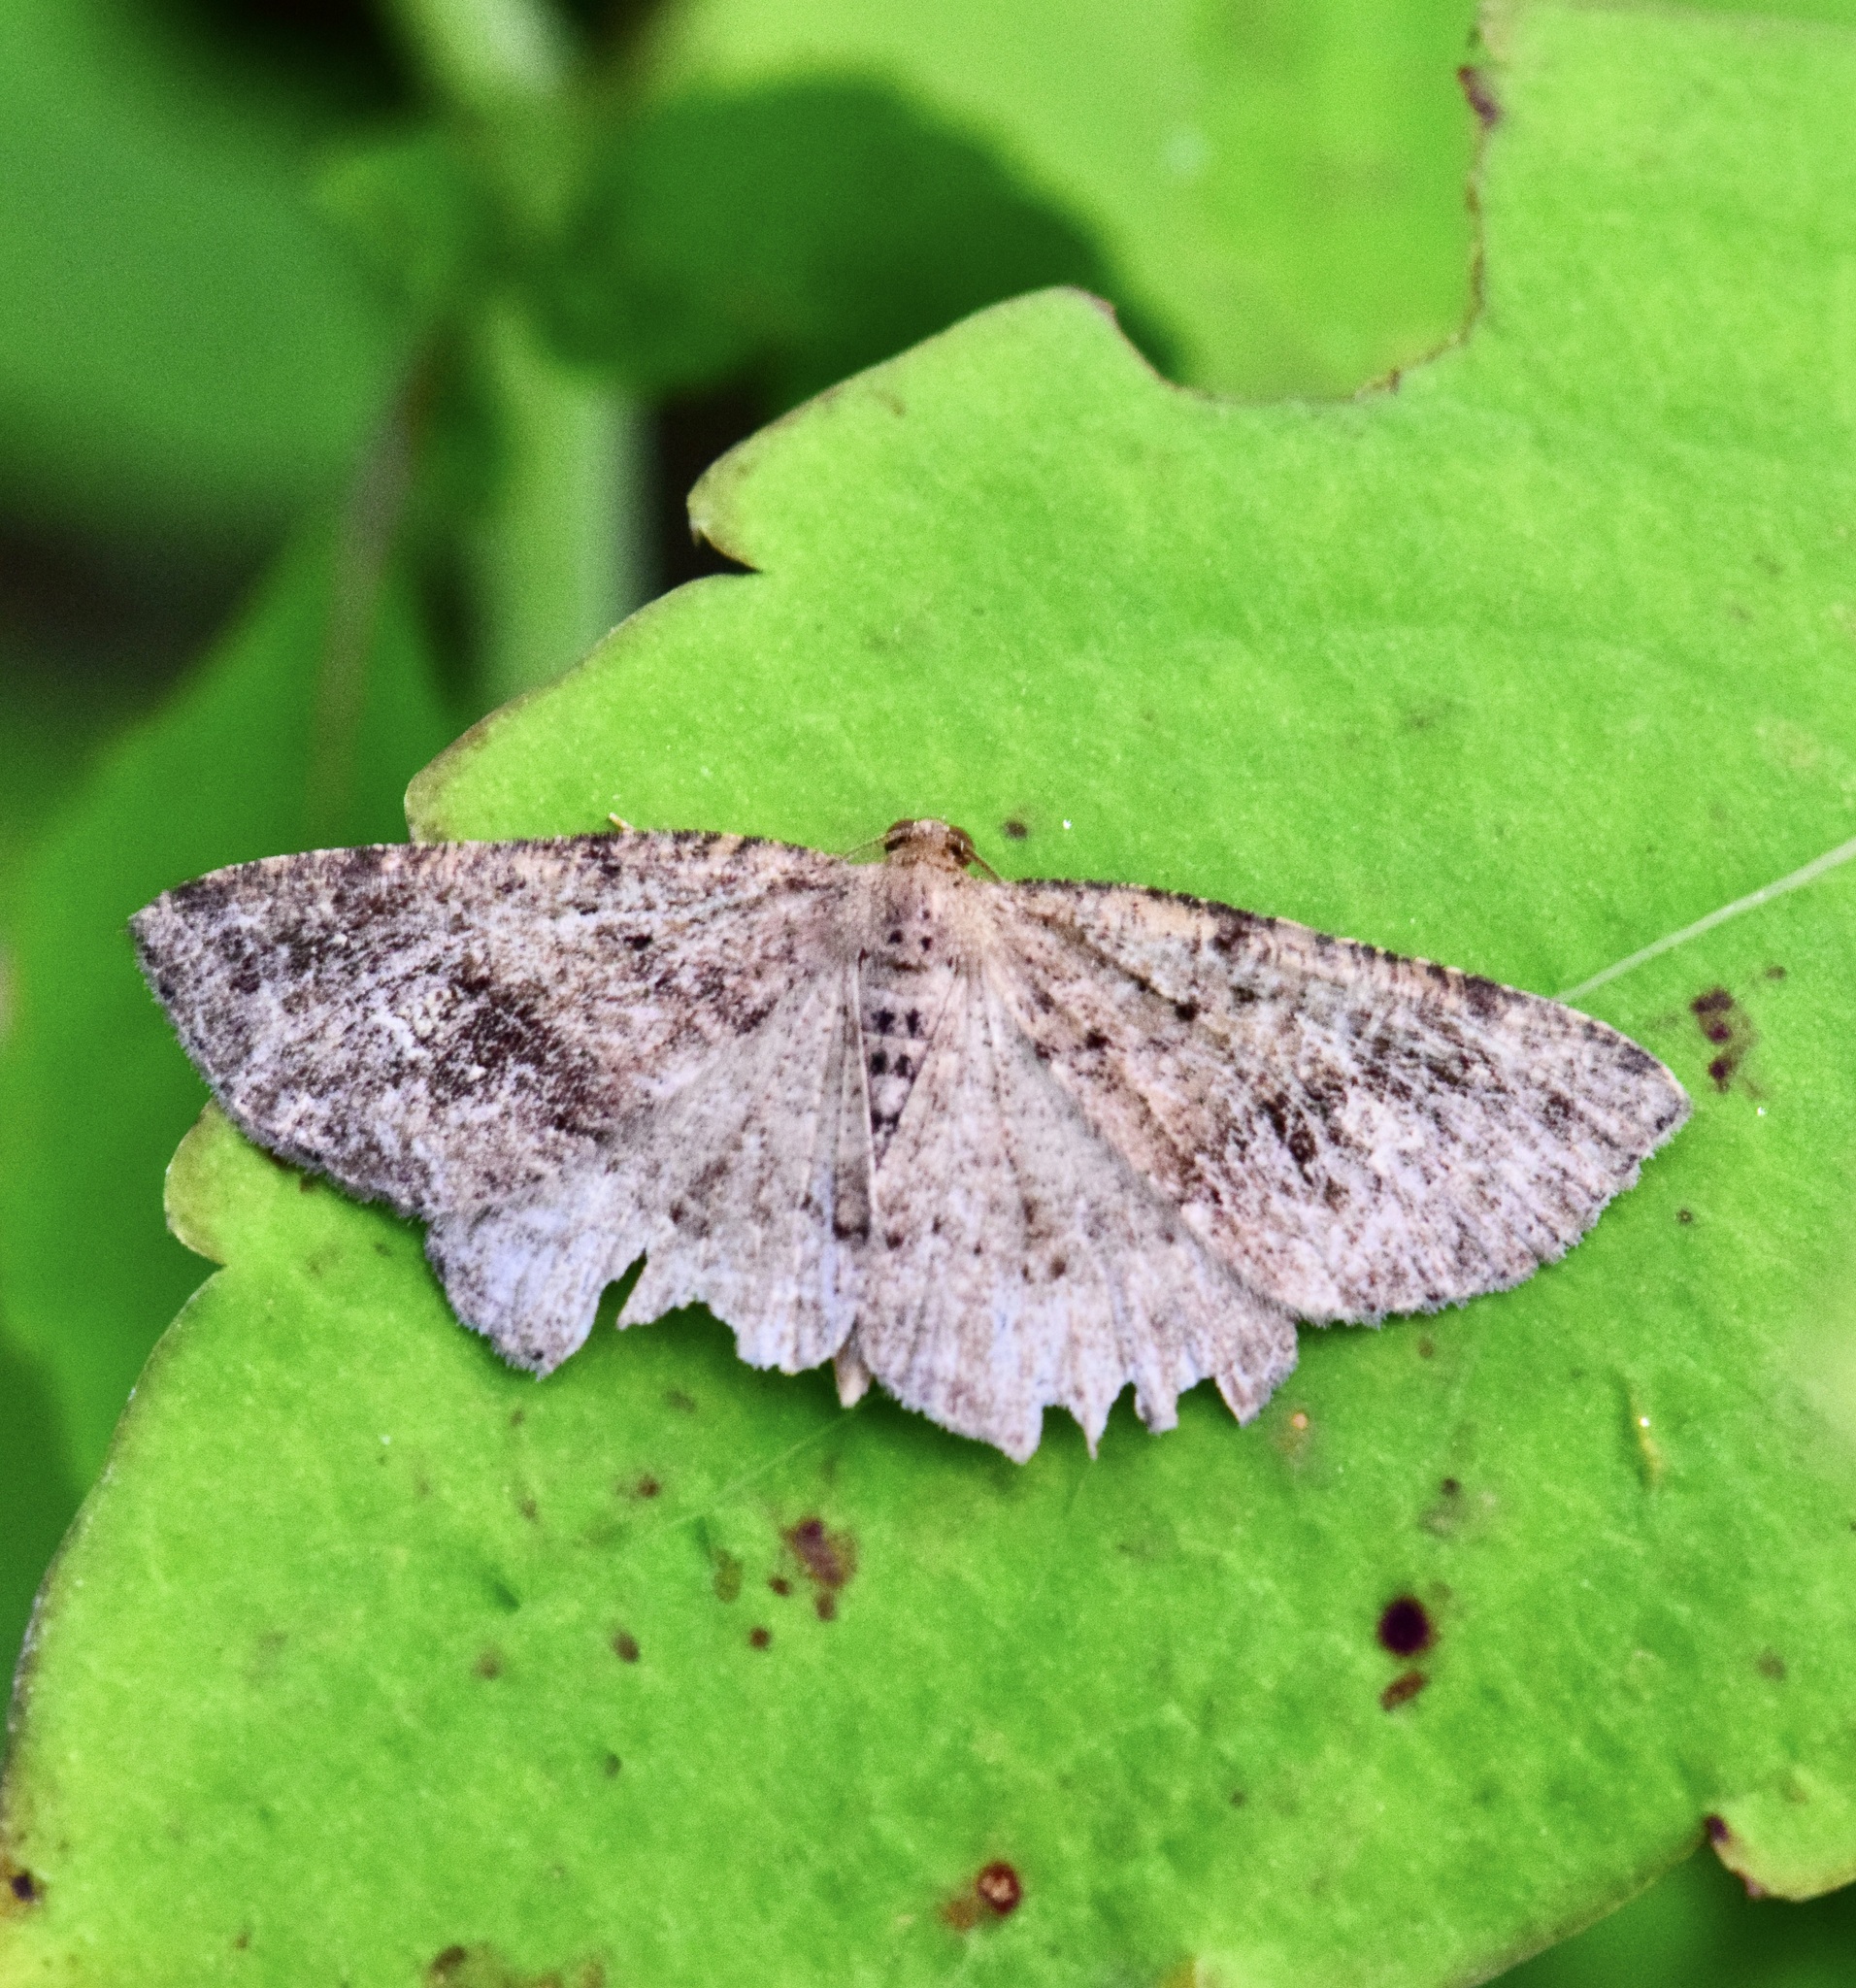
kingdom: Animalia
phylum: Arthropoda
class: Insecta
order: Lepidoptera
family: Geometridae
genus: Homochlodes
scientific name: Homochlodes fritillaria
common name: Pale homochlodes
